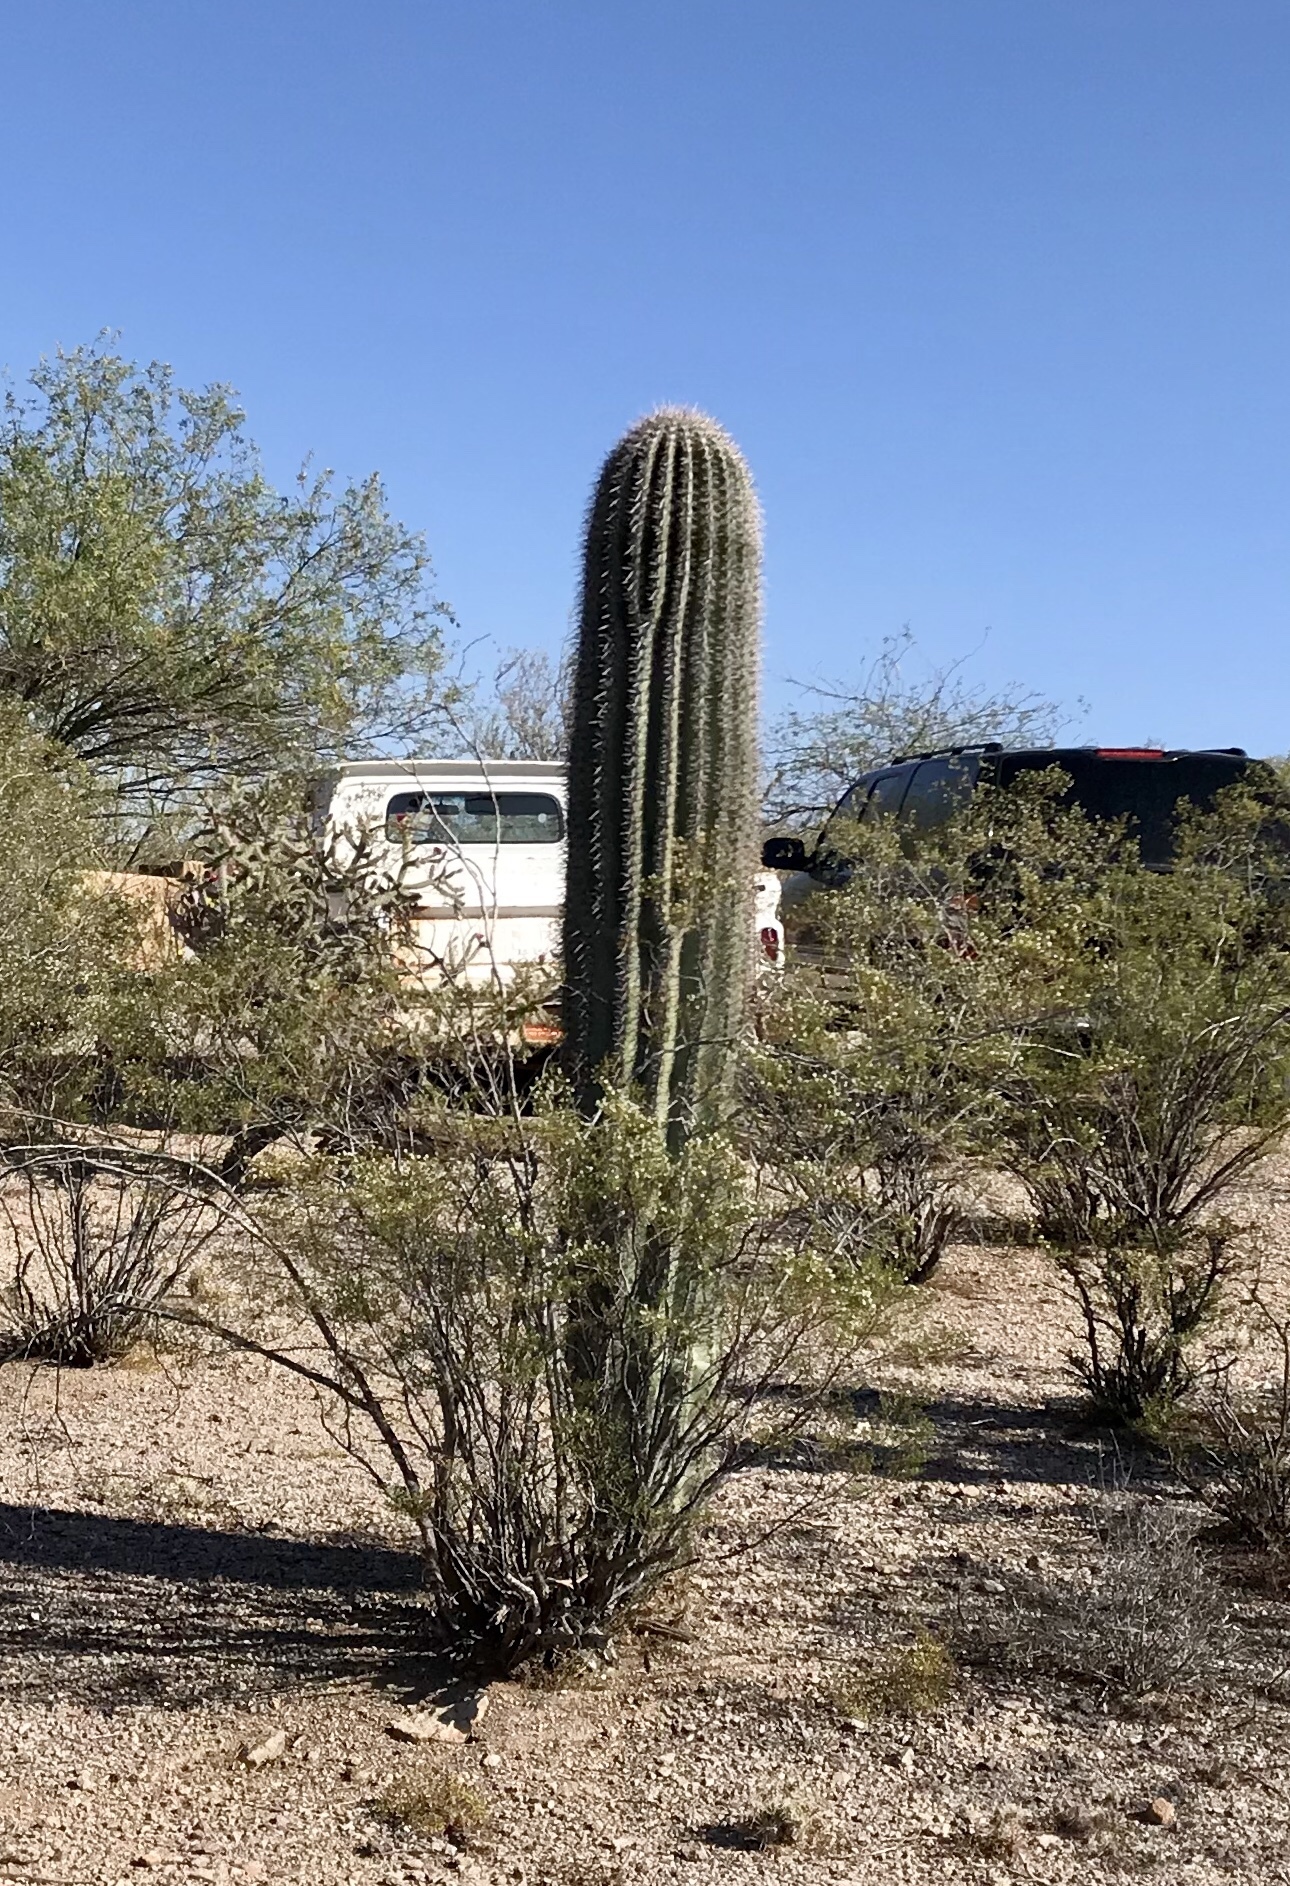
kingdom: Plantae
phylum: Tracheophyta
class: Magnoliopsida
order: Caryophyllales
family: Cactaceae
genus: Carnegiea
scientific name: Carnegiea gigantea
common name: Saguaro
